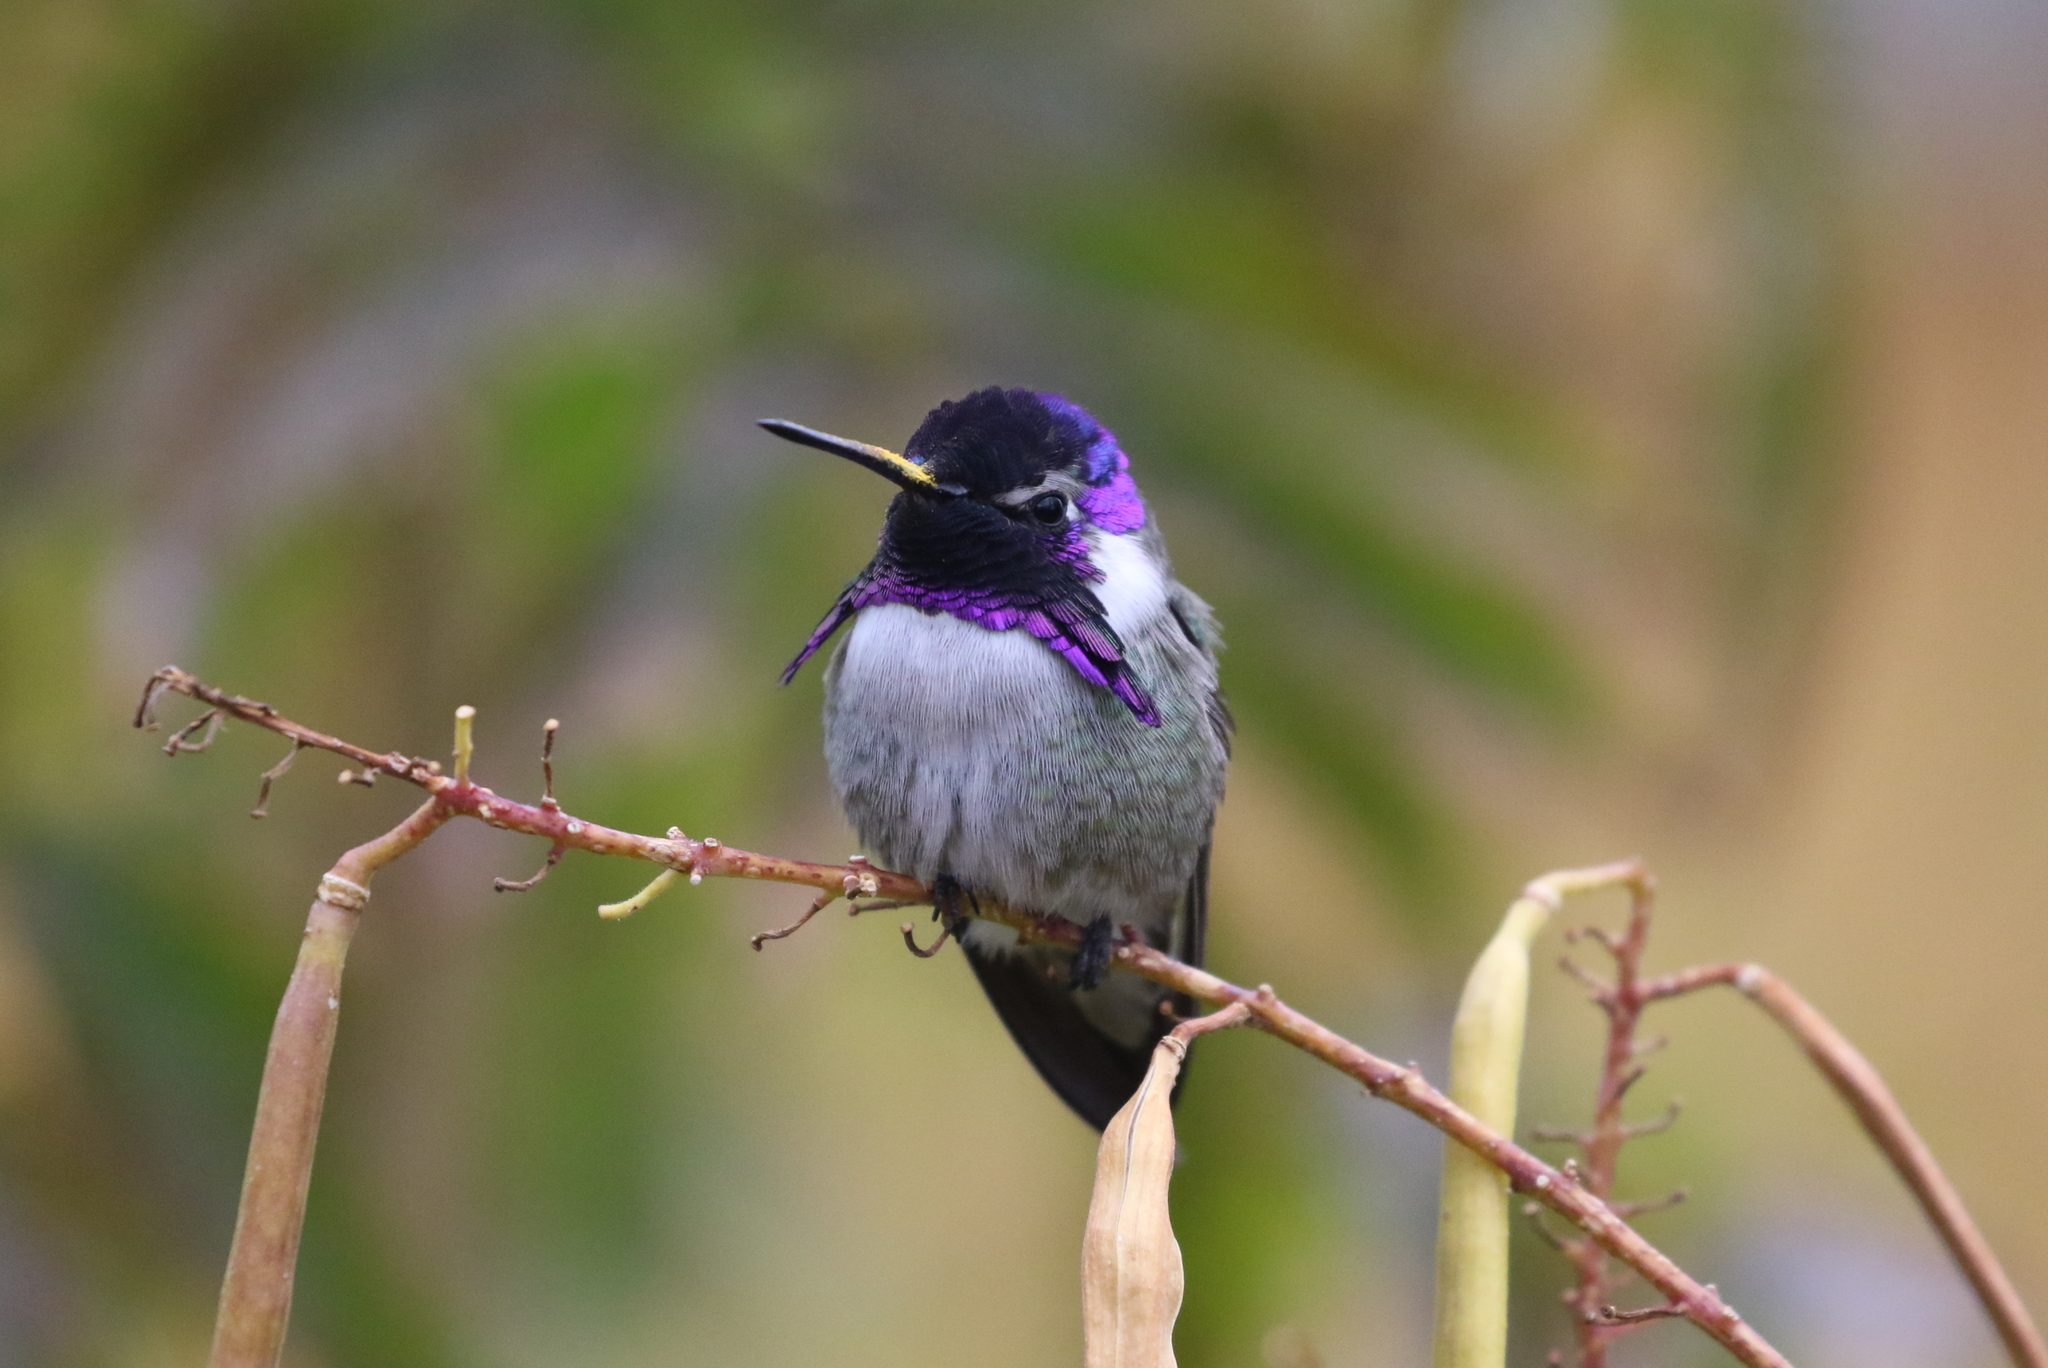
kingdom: Animalia
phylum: Chordata
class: Aves
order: Apodiformes
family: Trochilidae
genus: Calypte
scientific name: Calypte costae
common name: Costa's hummingbird
